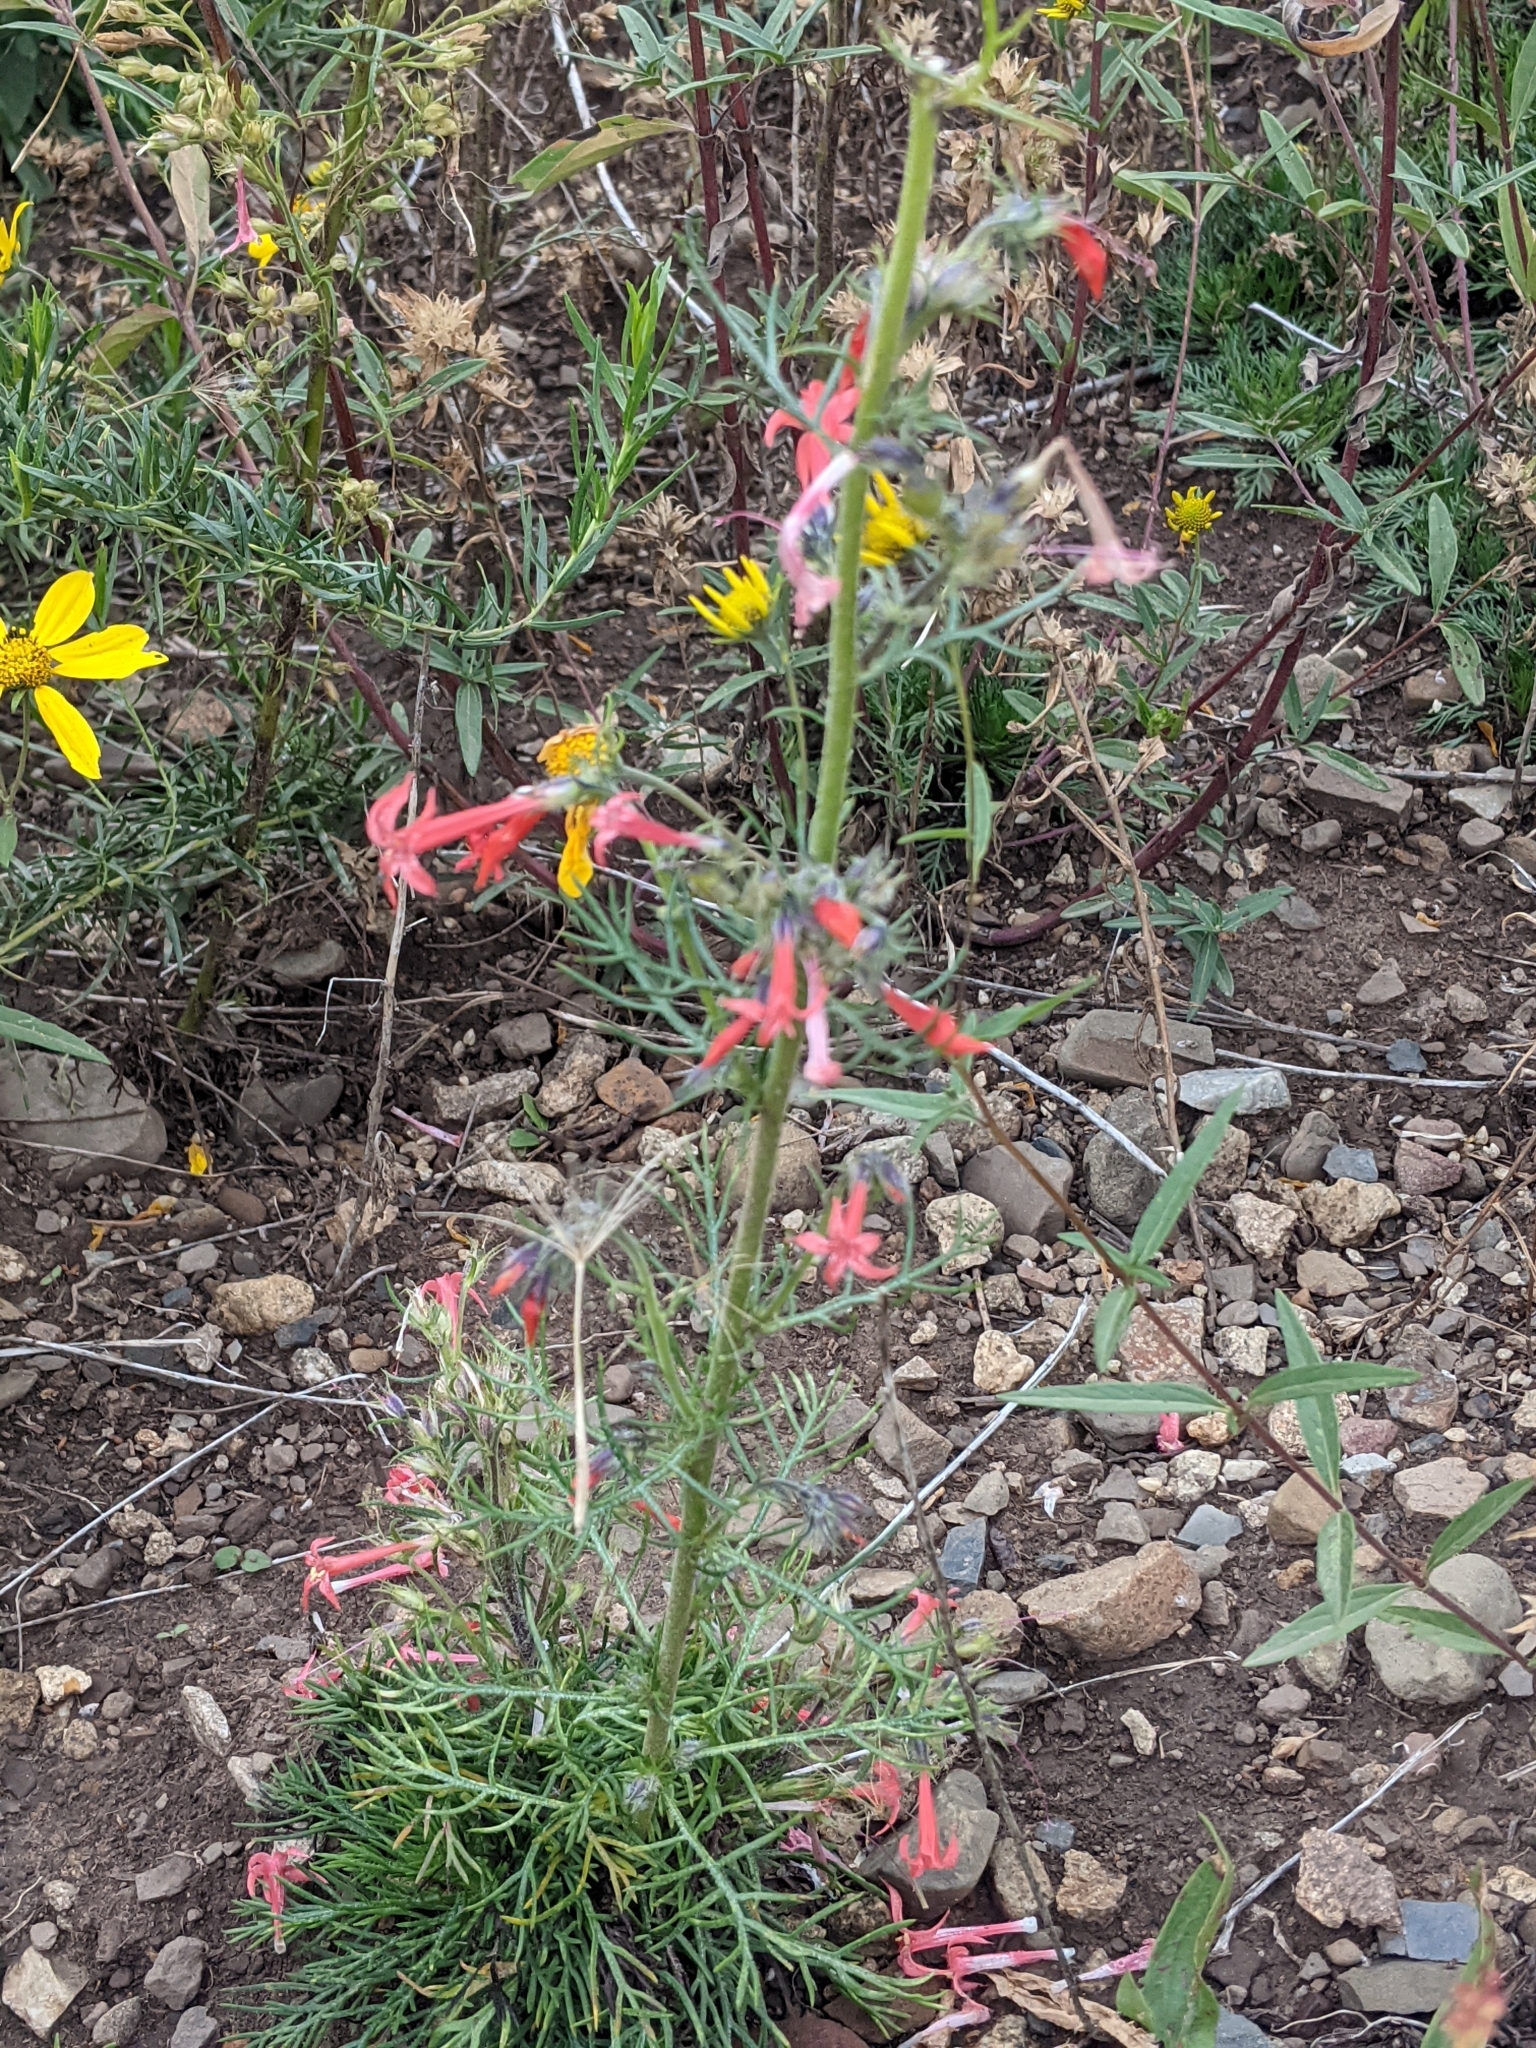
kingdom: Plantae
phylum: Tracheophyta
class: Magnoliopsida
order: Ericales
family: Polemoniaceae
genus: Ipomopsis
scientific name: Ipomopsis aggregata
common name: Scarlet gilia
